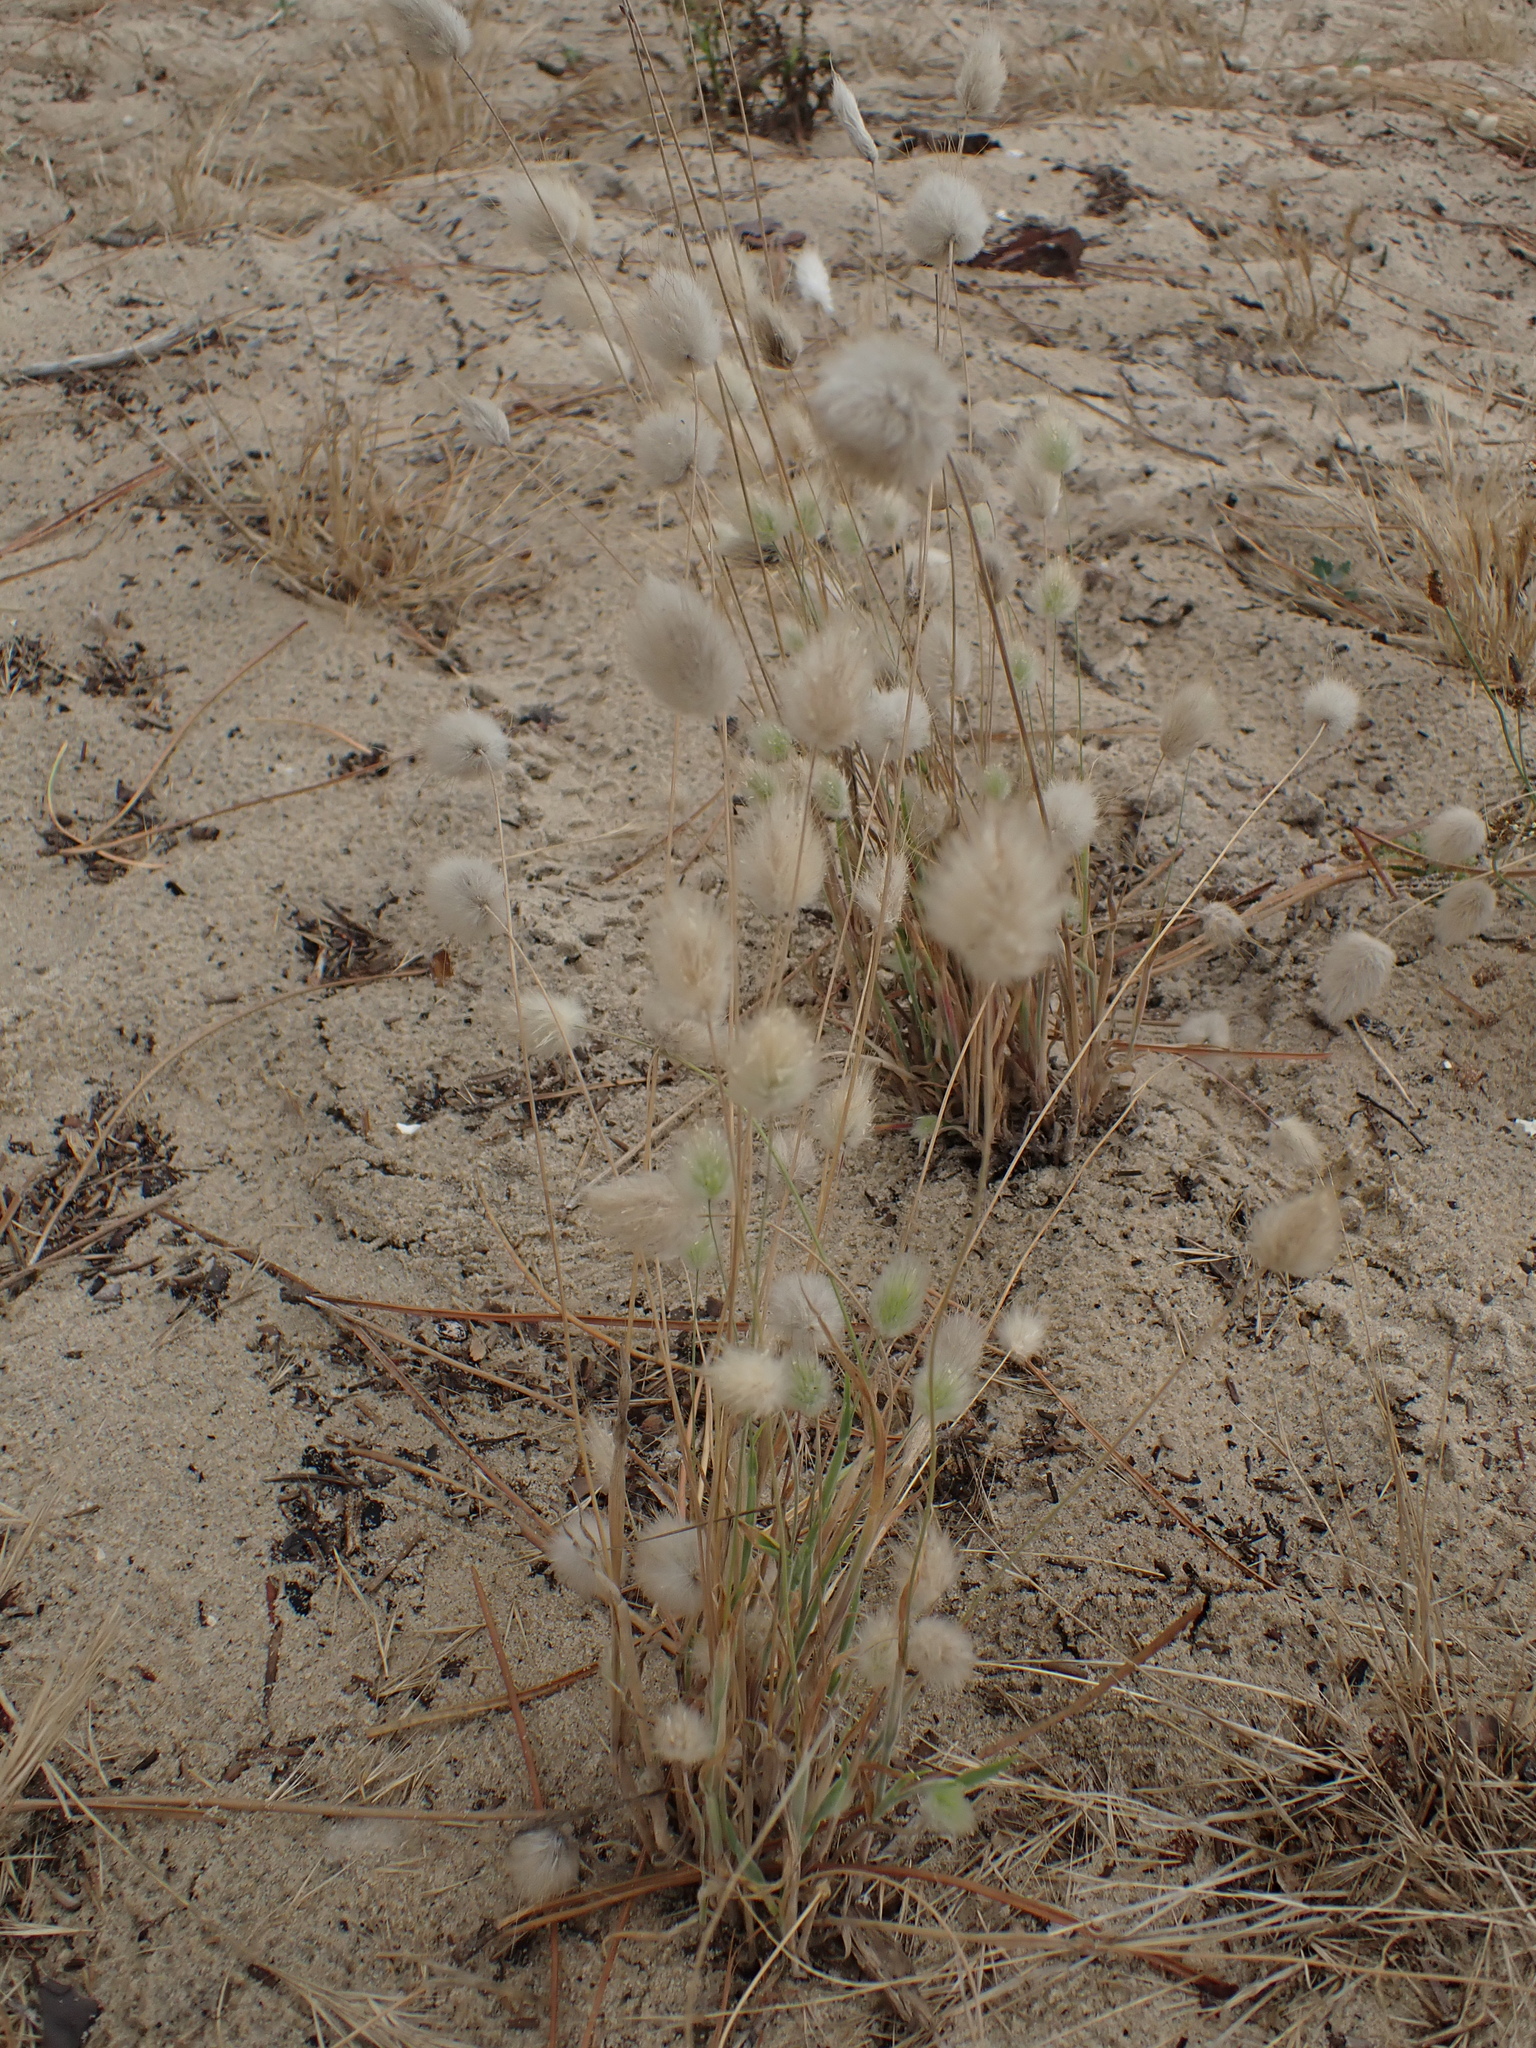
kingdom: Plantae
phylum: Tracheophyta
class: Liliopsida
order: Poales
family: Poaceae
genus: Lagurus
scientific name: Lagurus ovatus
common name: Hare's-tail
